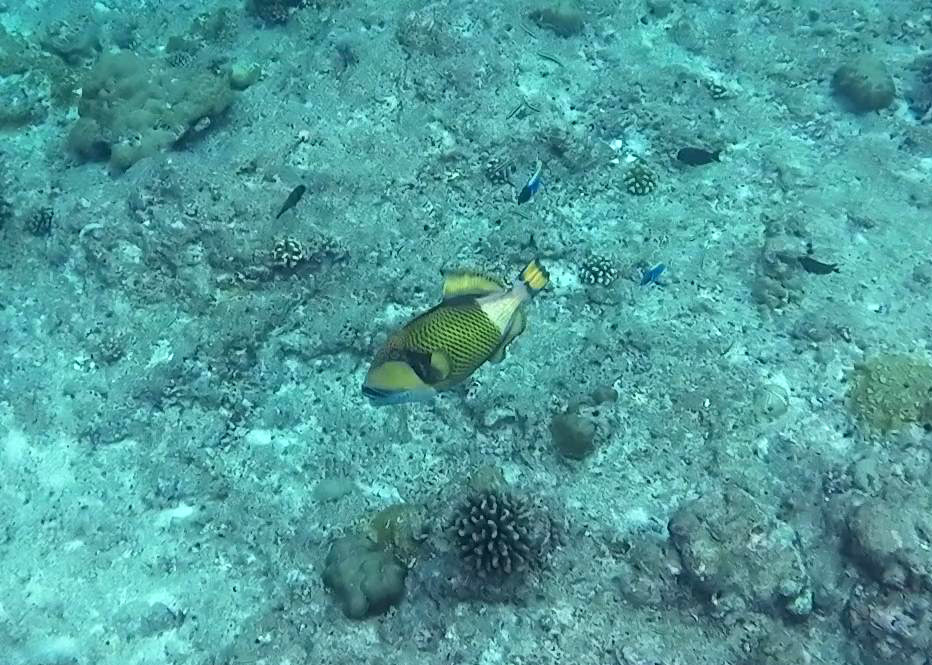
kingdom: Animalia
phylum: Chordata
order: Tetraodontiformes
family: Balistidae
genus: Balistoides
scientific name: Balistoides viridescens
